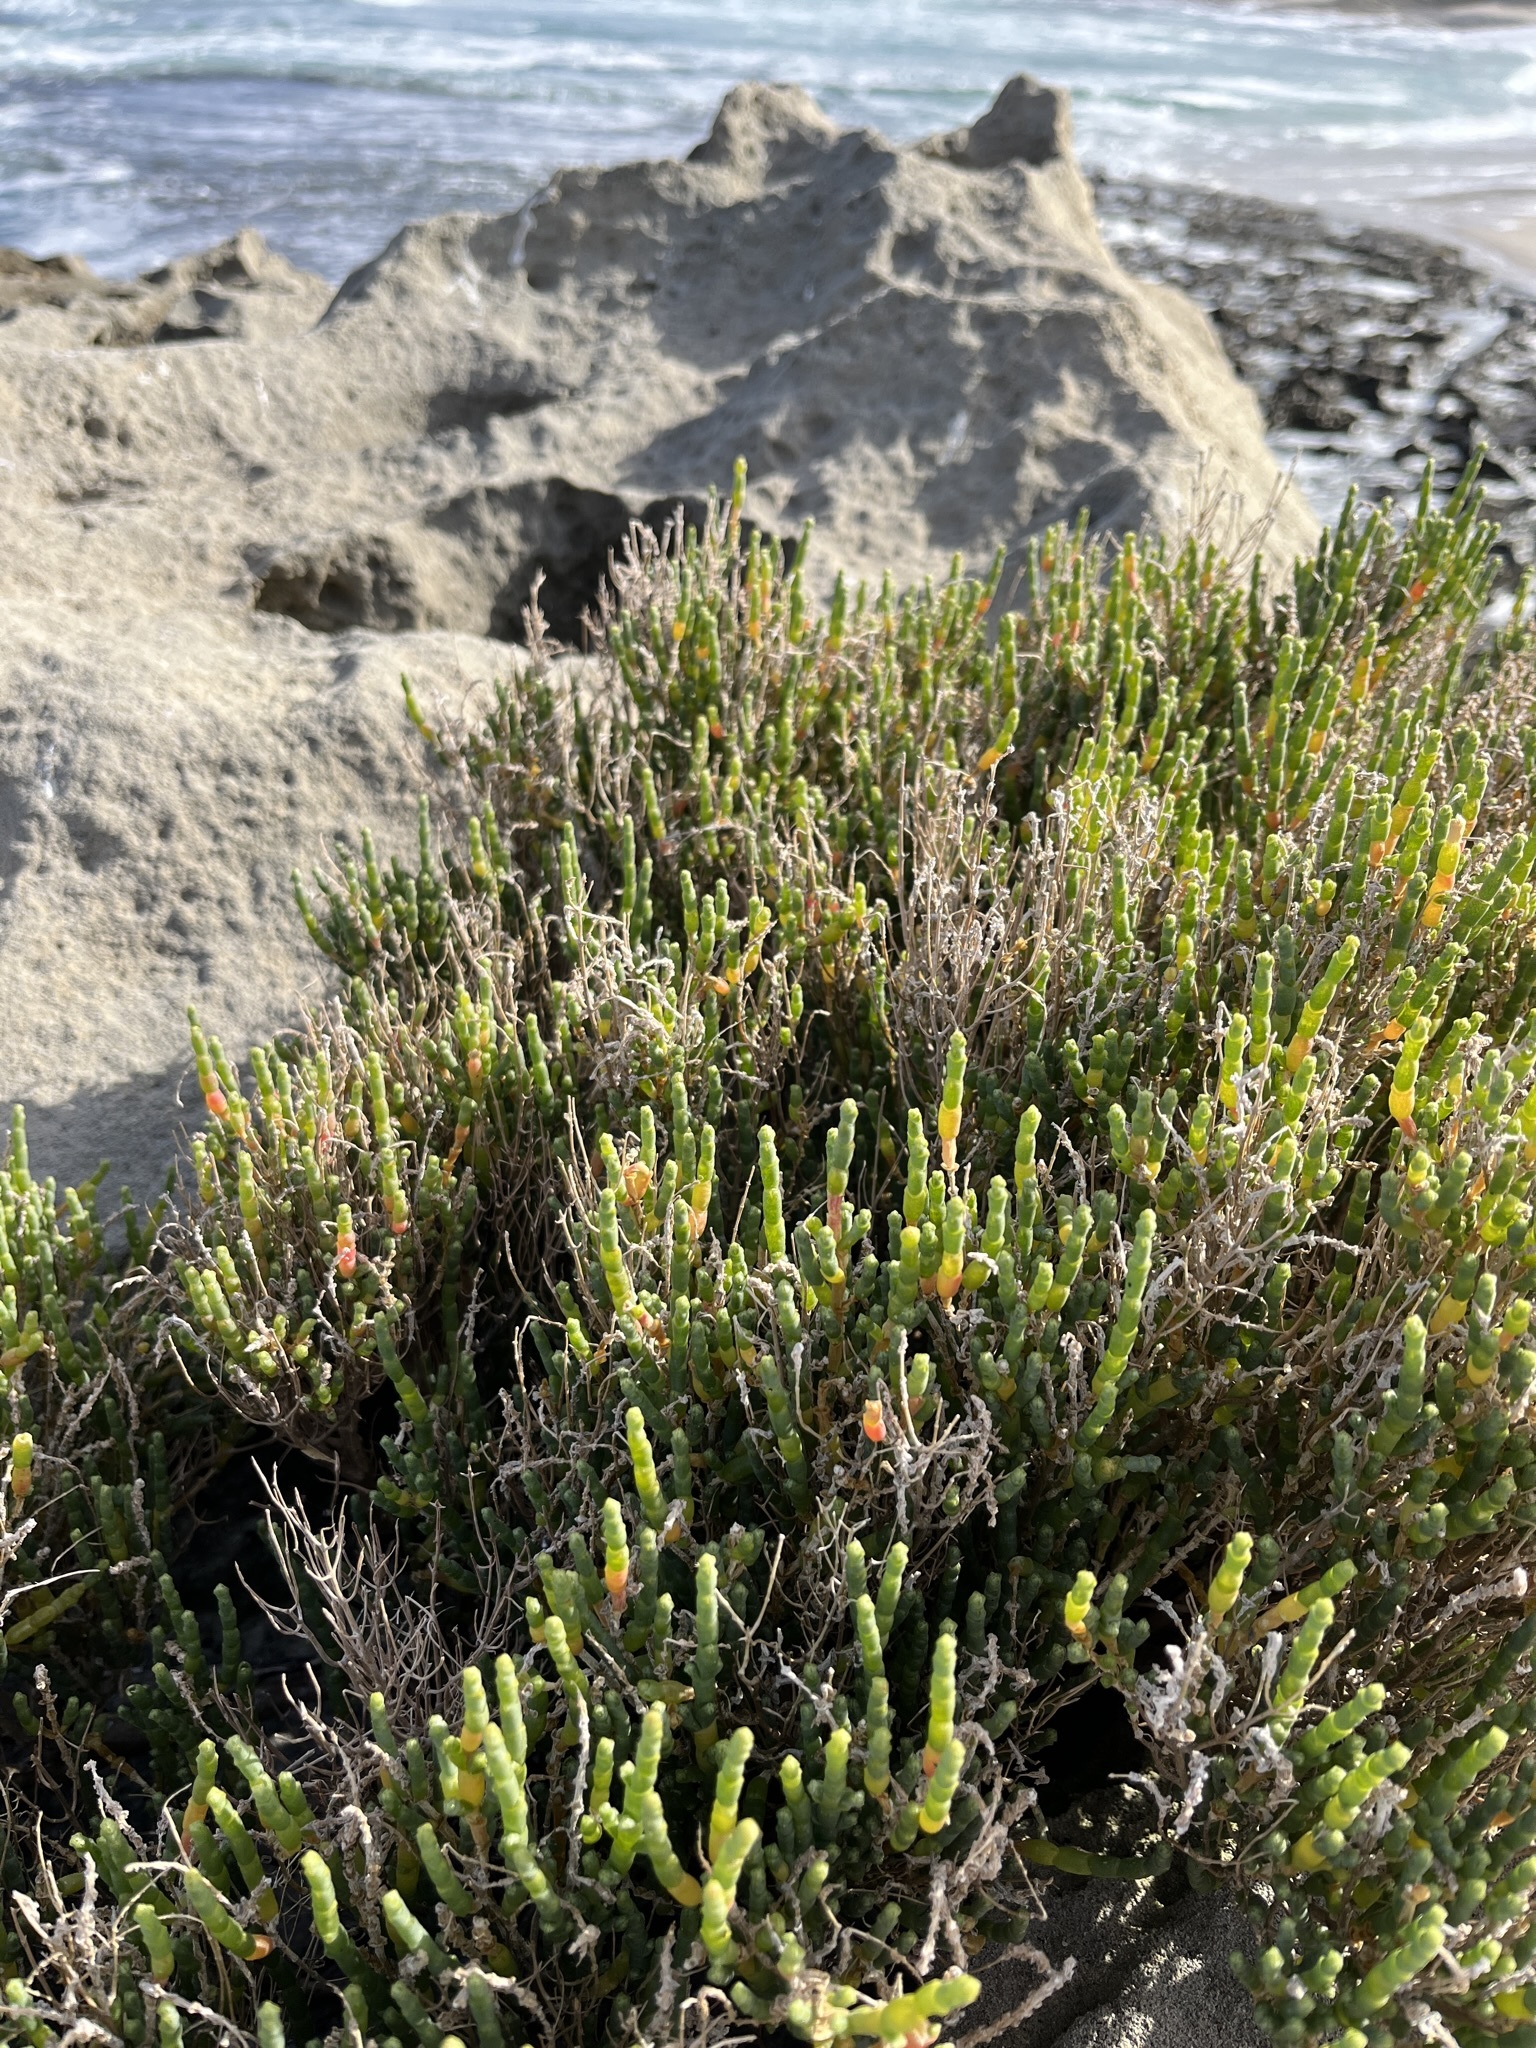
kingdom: Plantae
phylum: Tracheophyta
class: Magnoliopsida
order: Caryophyllales
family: Amaranthaceae
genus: Salicornia
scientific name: Salicornia littorea
